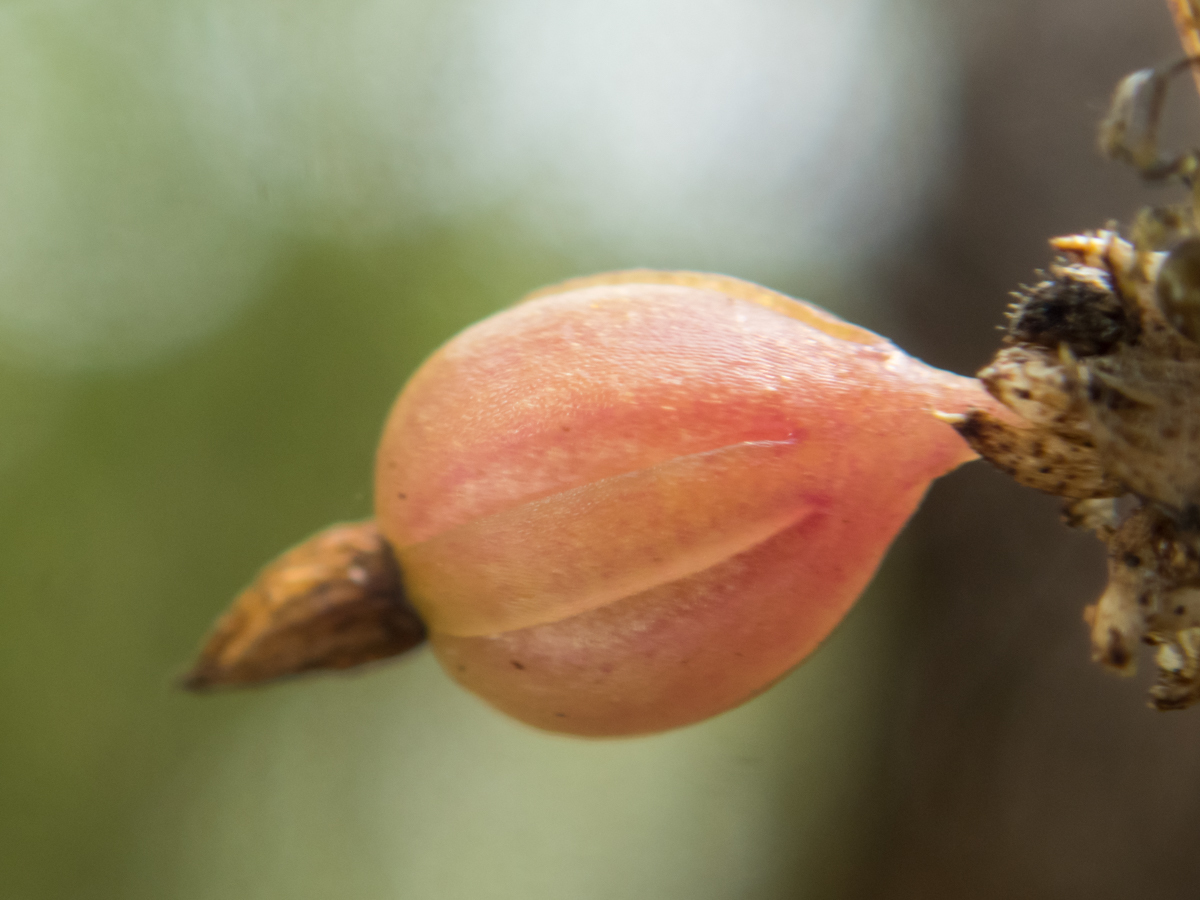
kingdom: Plantae
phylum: Tracheophyta
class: Liliopsida
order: Asparagales
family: Orchidaceae
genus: Dendrobium
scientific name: Dendrobium aloifolium
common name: Aloe-like dendrobium
